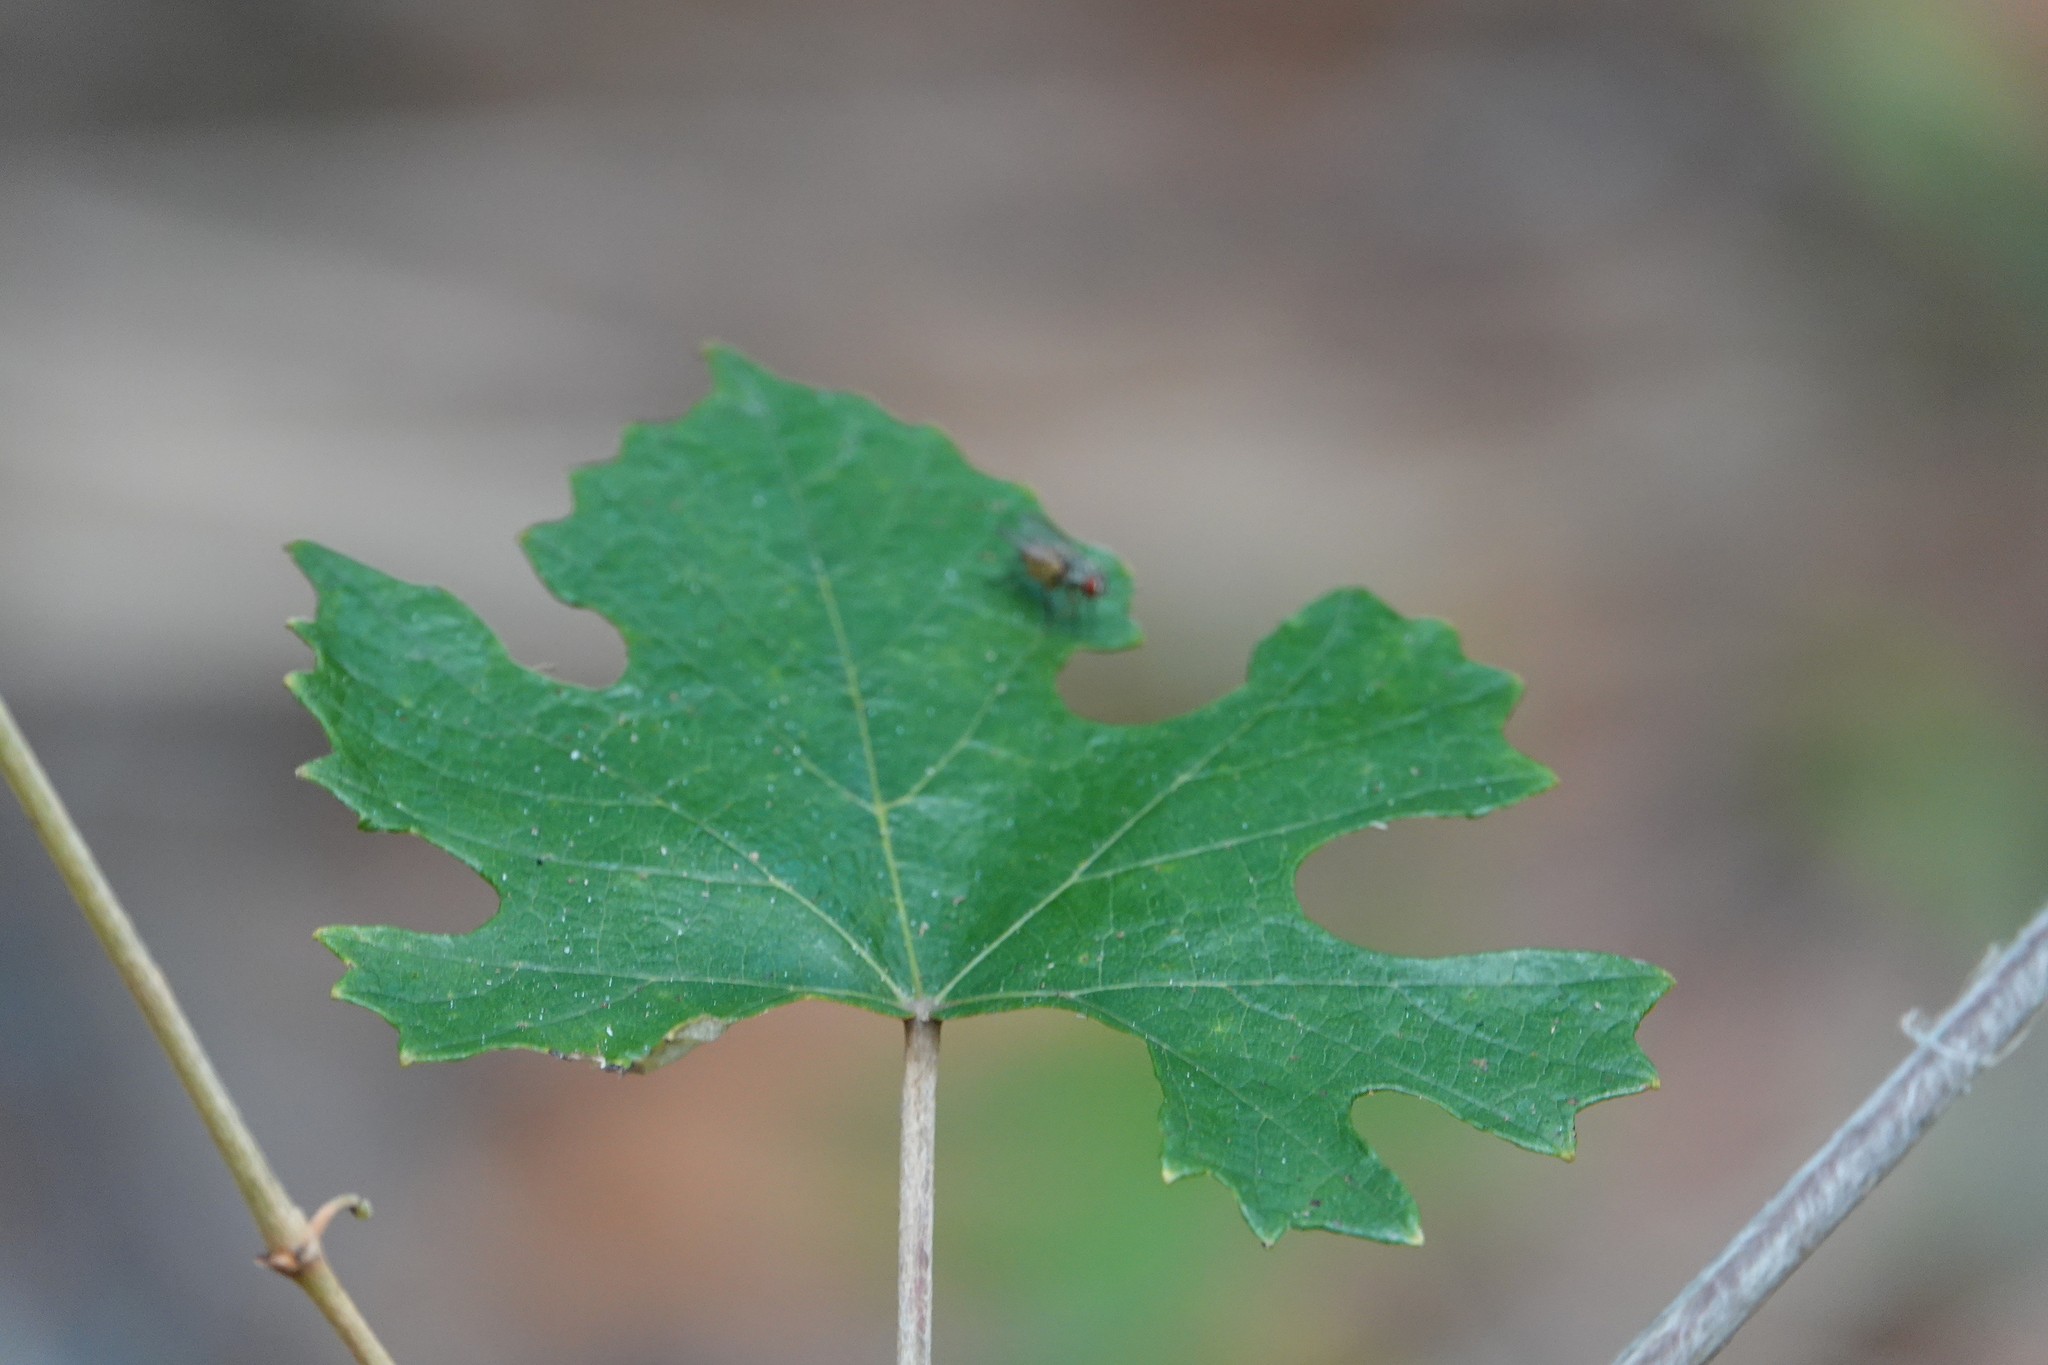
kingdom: Plantae
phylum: Tracheophyta
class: Magnoliopsida
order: Vitales
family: Vitaceae
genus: Vitis
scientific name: Vitis aestivalis
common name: Pigeon grape
